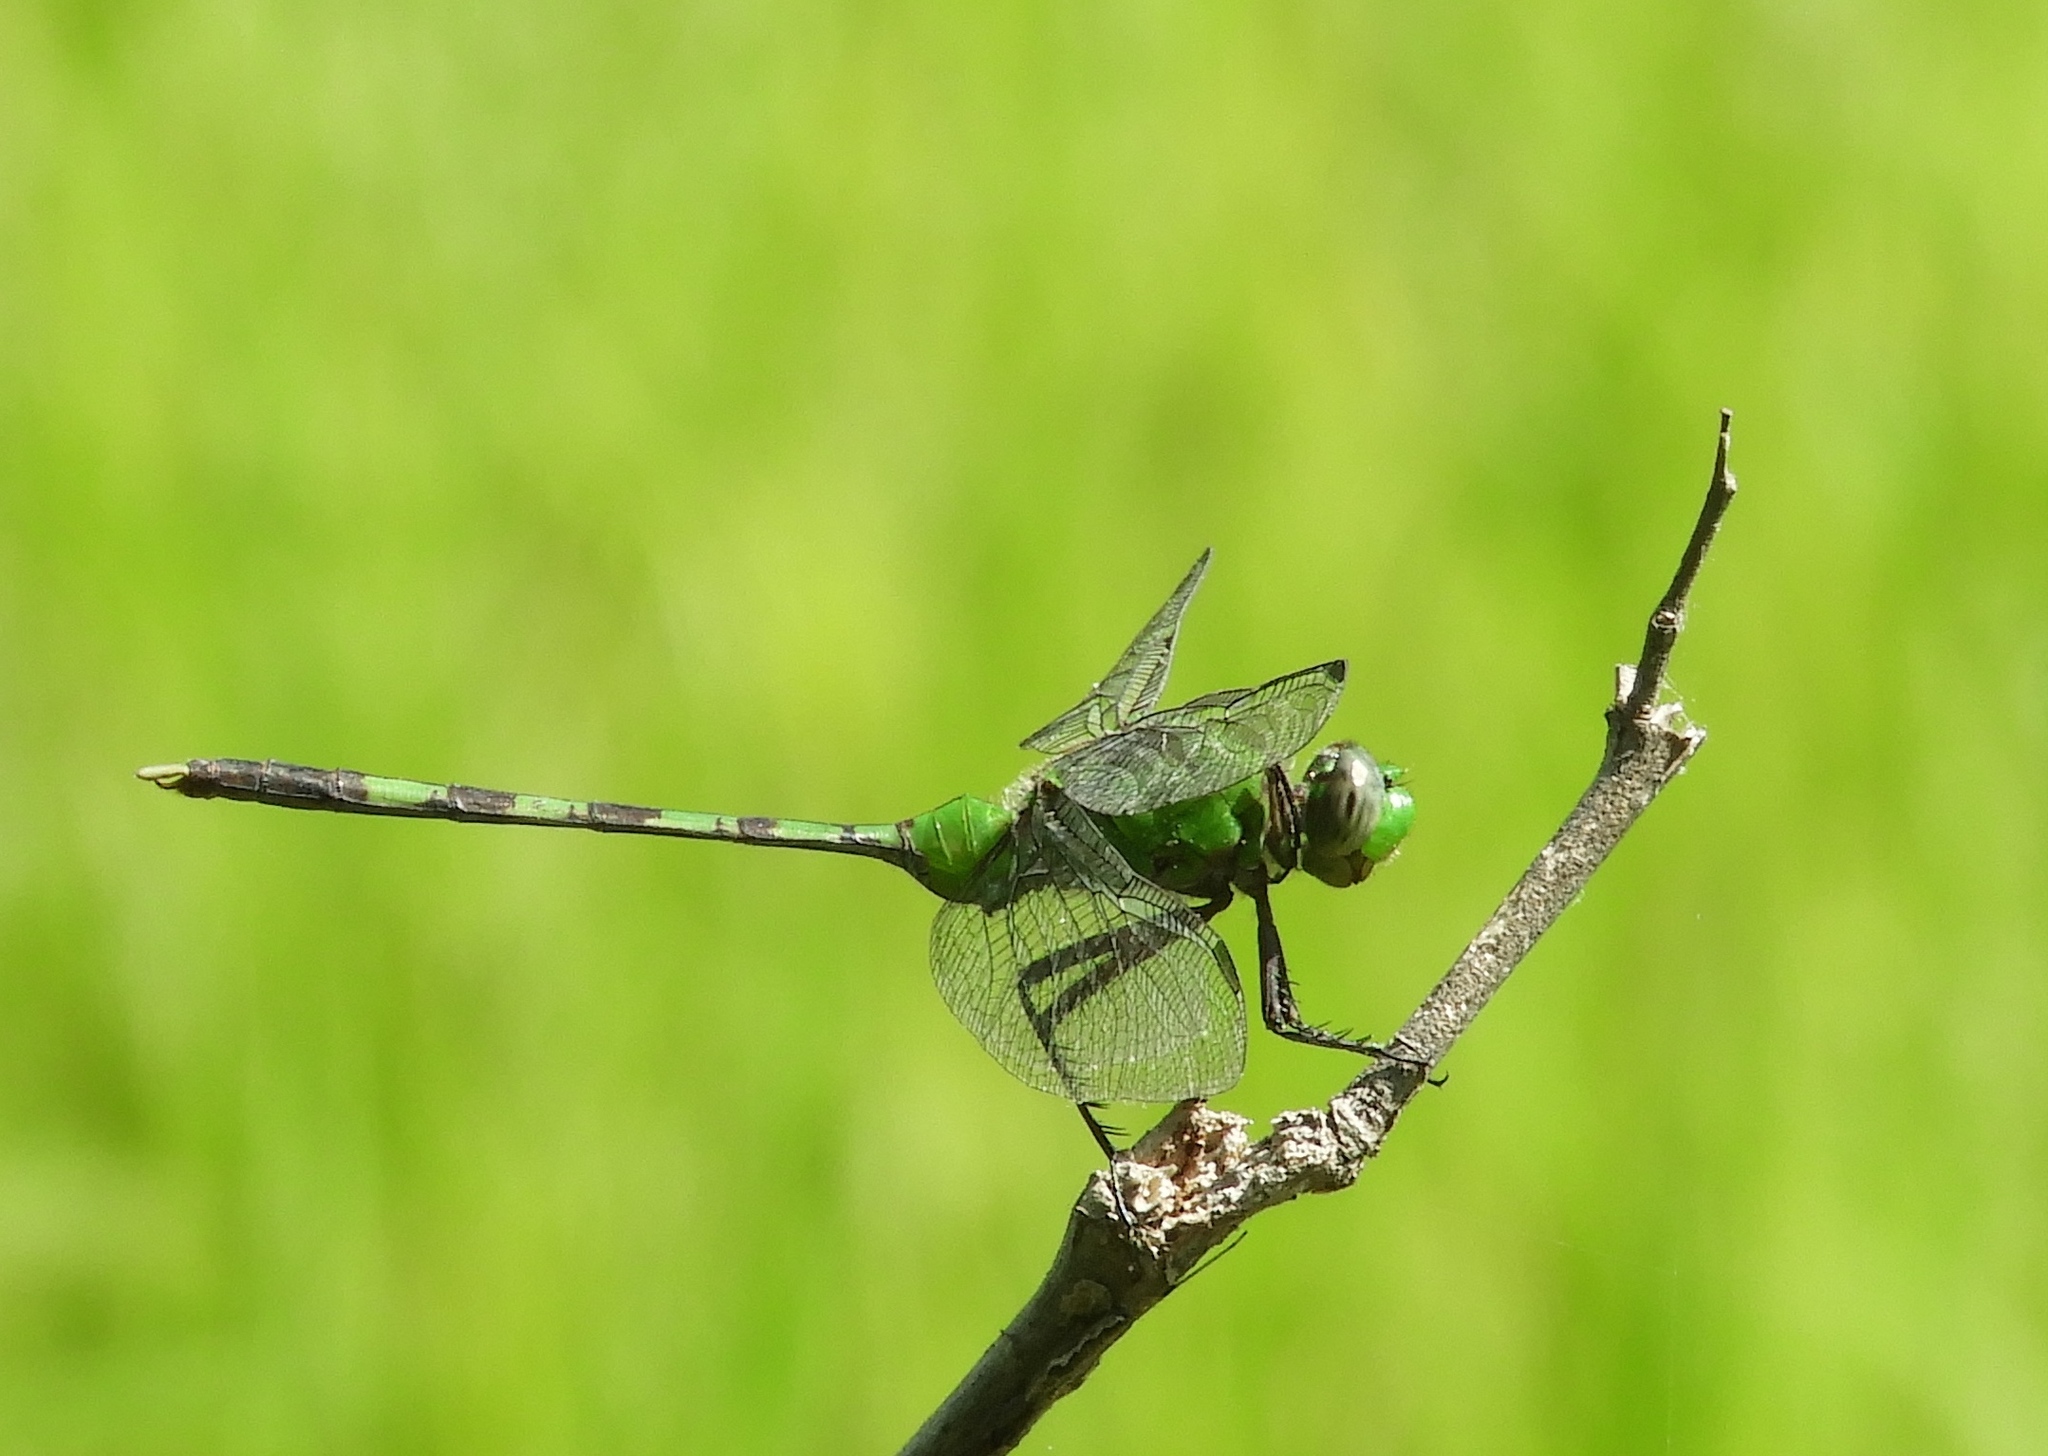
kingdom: Animalia
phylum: Arthropoda
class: Insecta
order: Odonata
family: Libellulidae
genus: Erythemis
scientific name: Erythemis vesiculosa
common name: Great pondhawk
